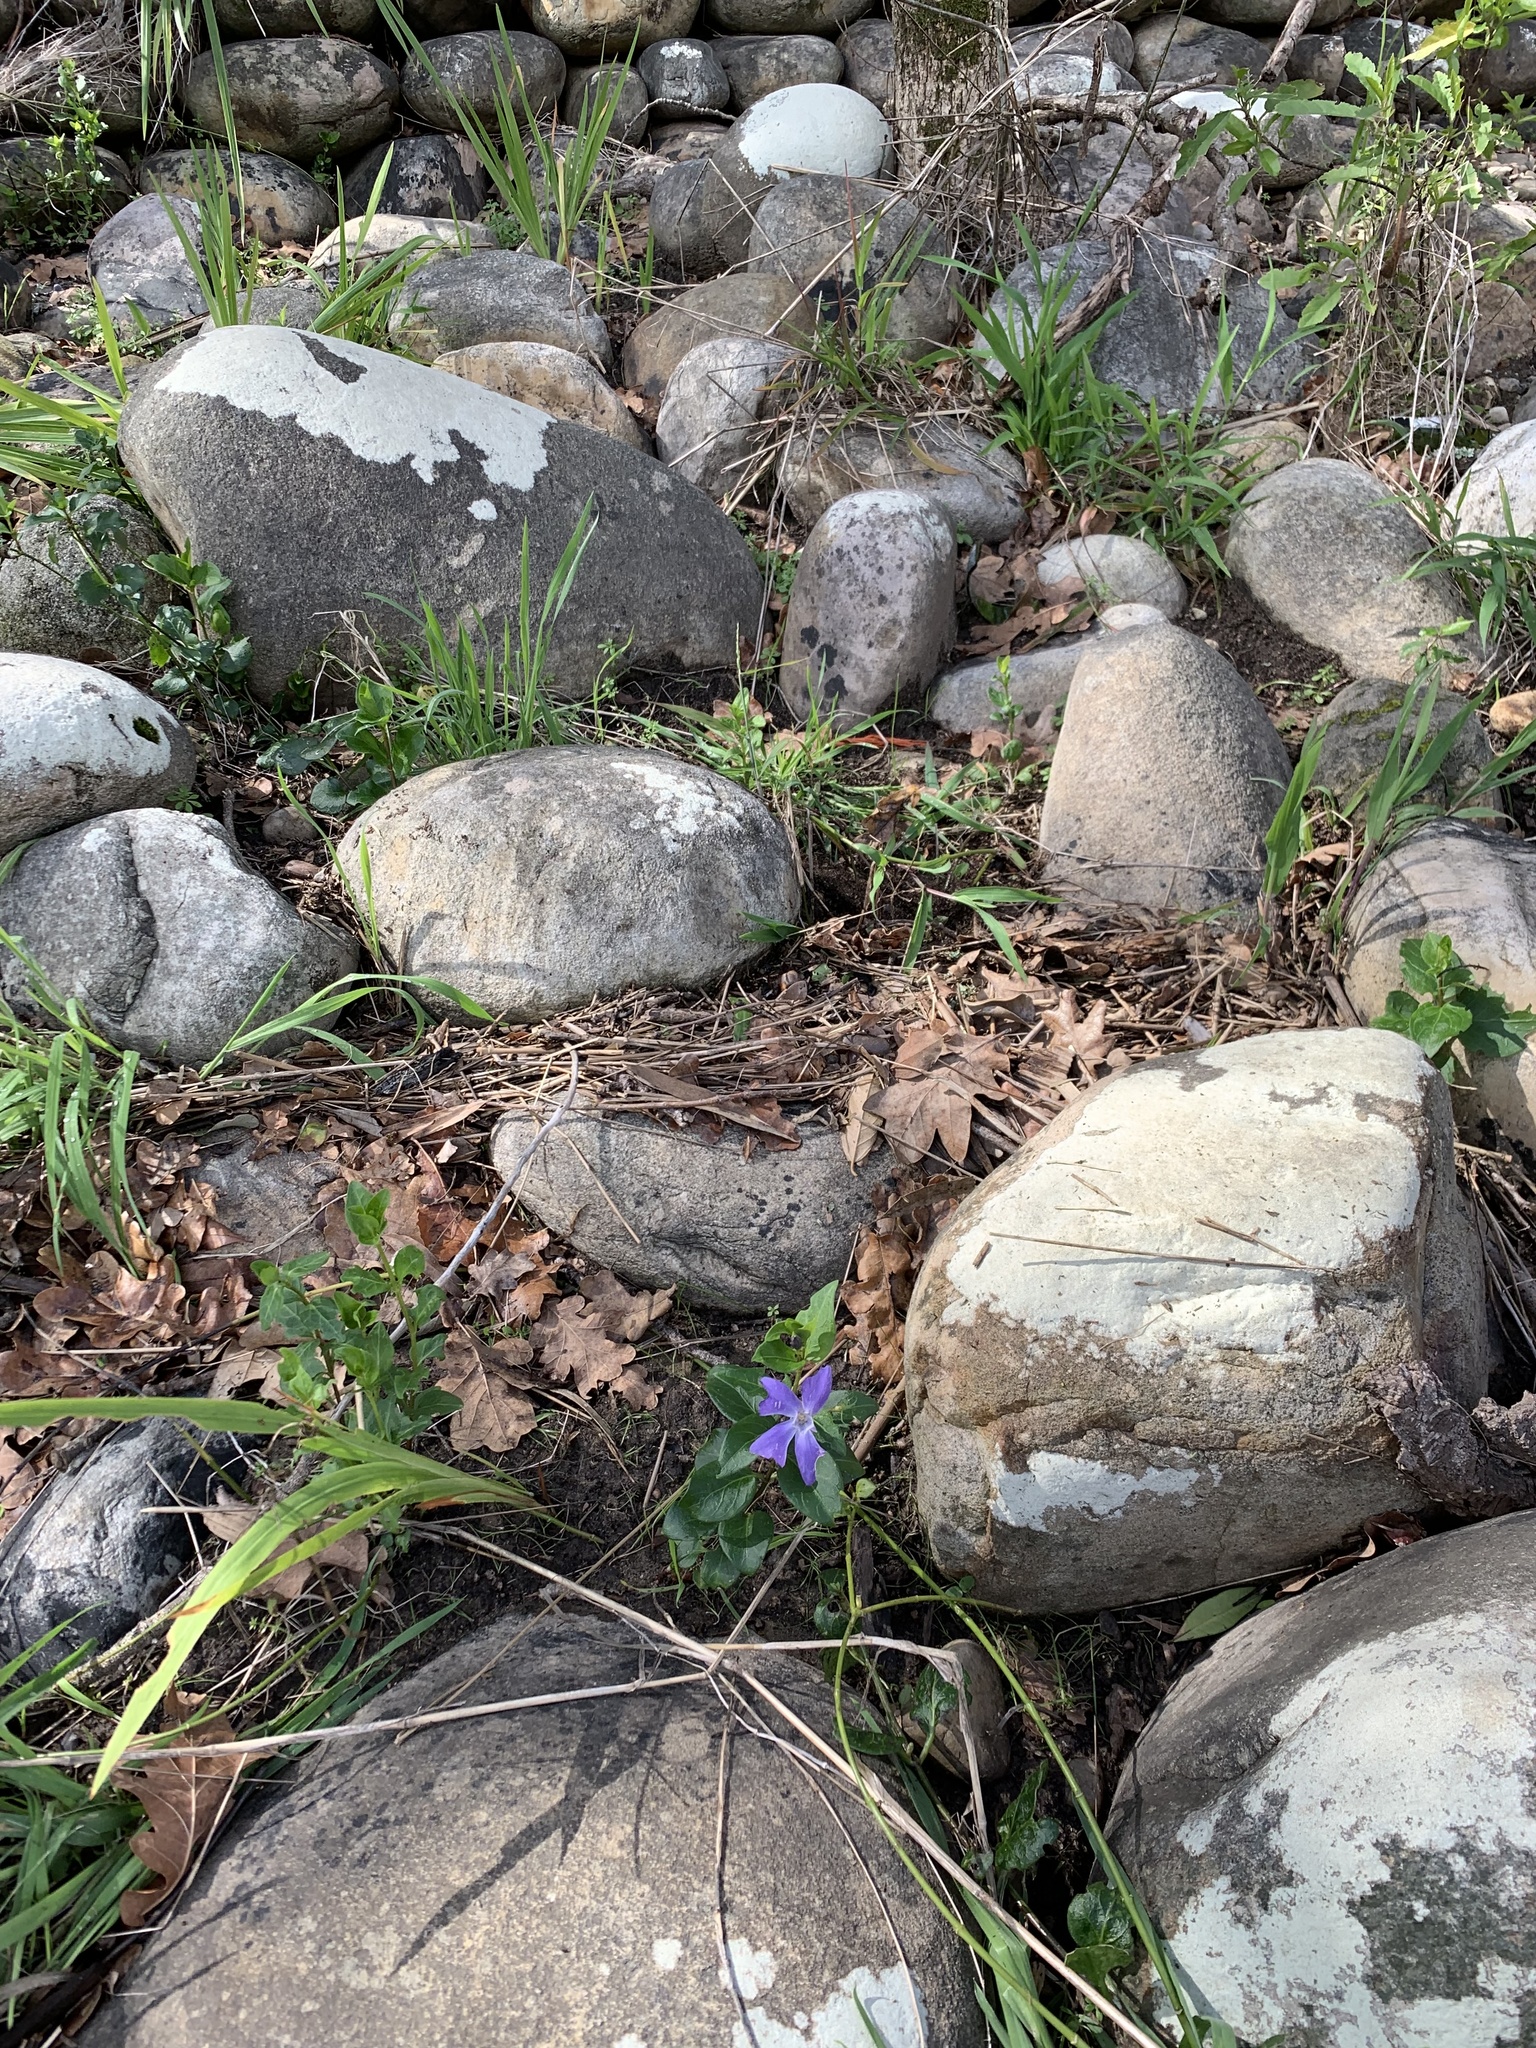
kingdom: Plantae
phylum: Tracheophyta
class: Magnoliopsida
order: Gentianales
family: Apocynaceae
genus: Vinca
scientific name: Vinca major
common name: Greater periwinkle
